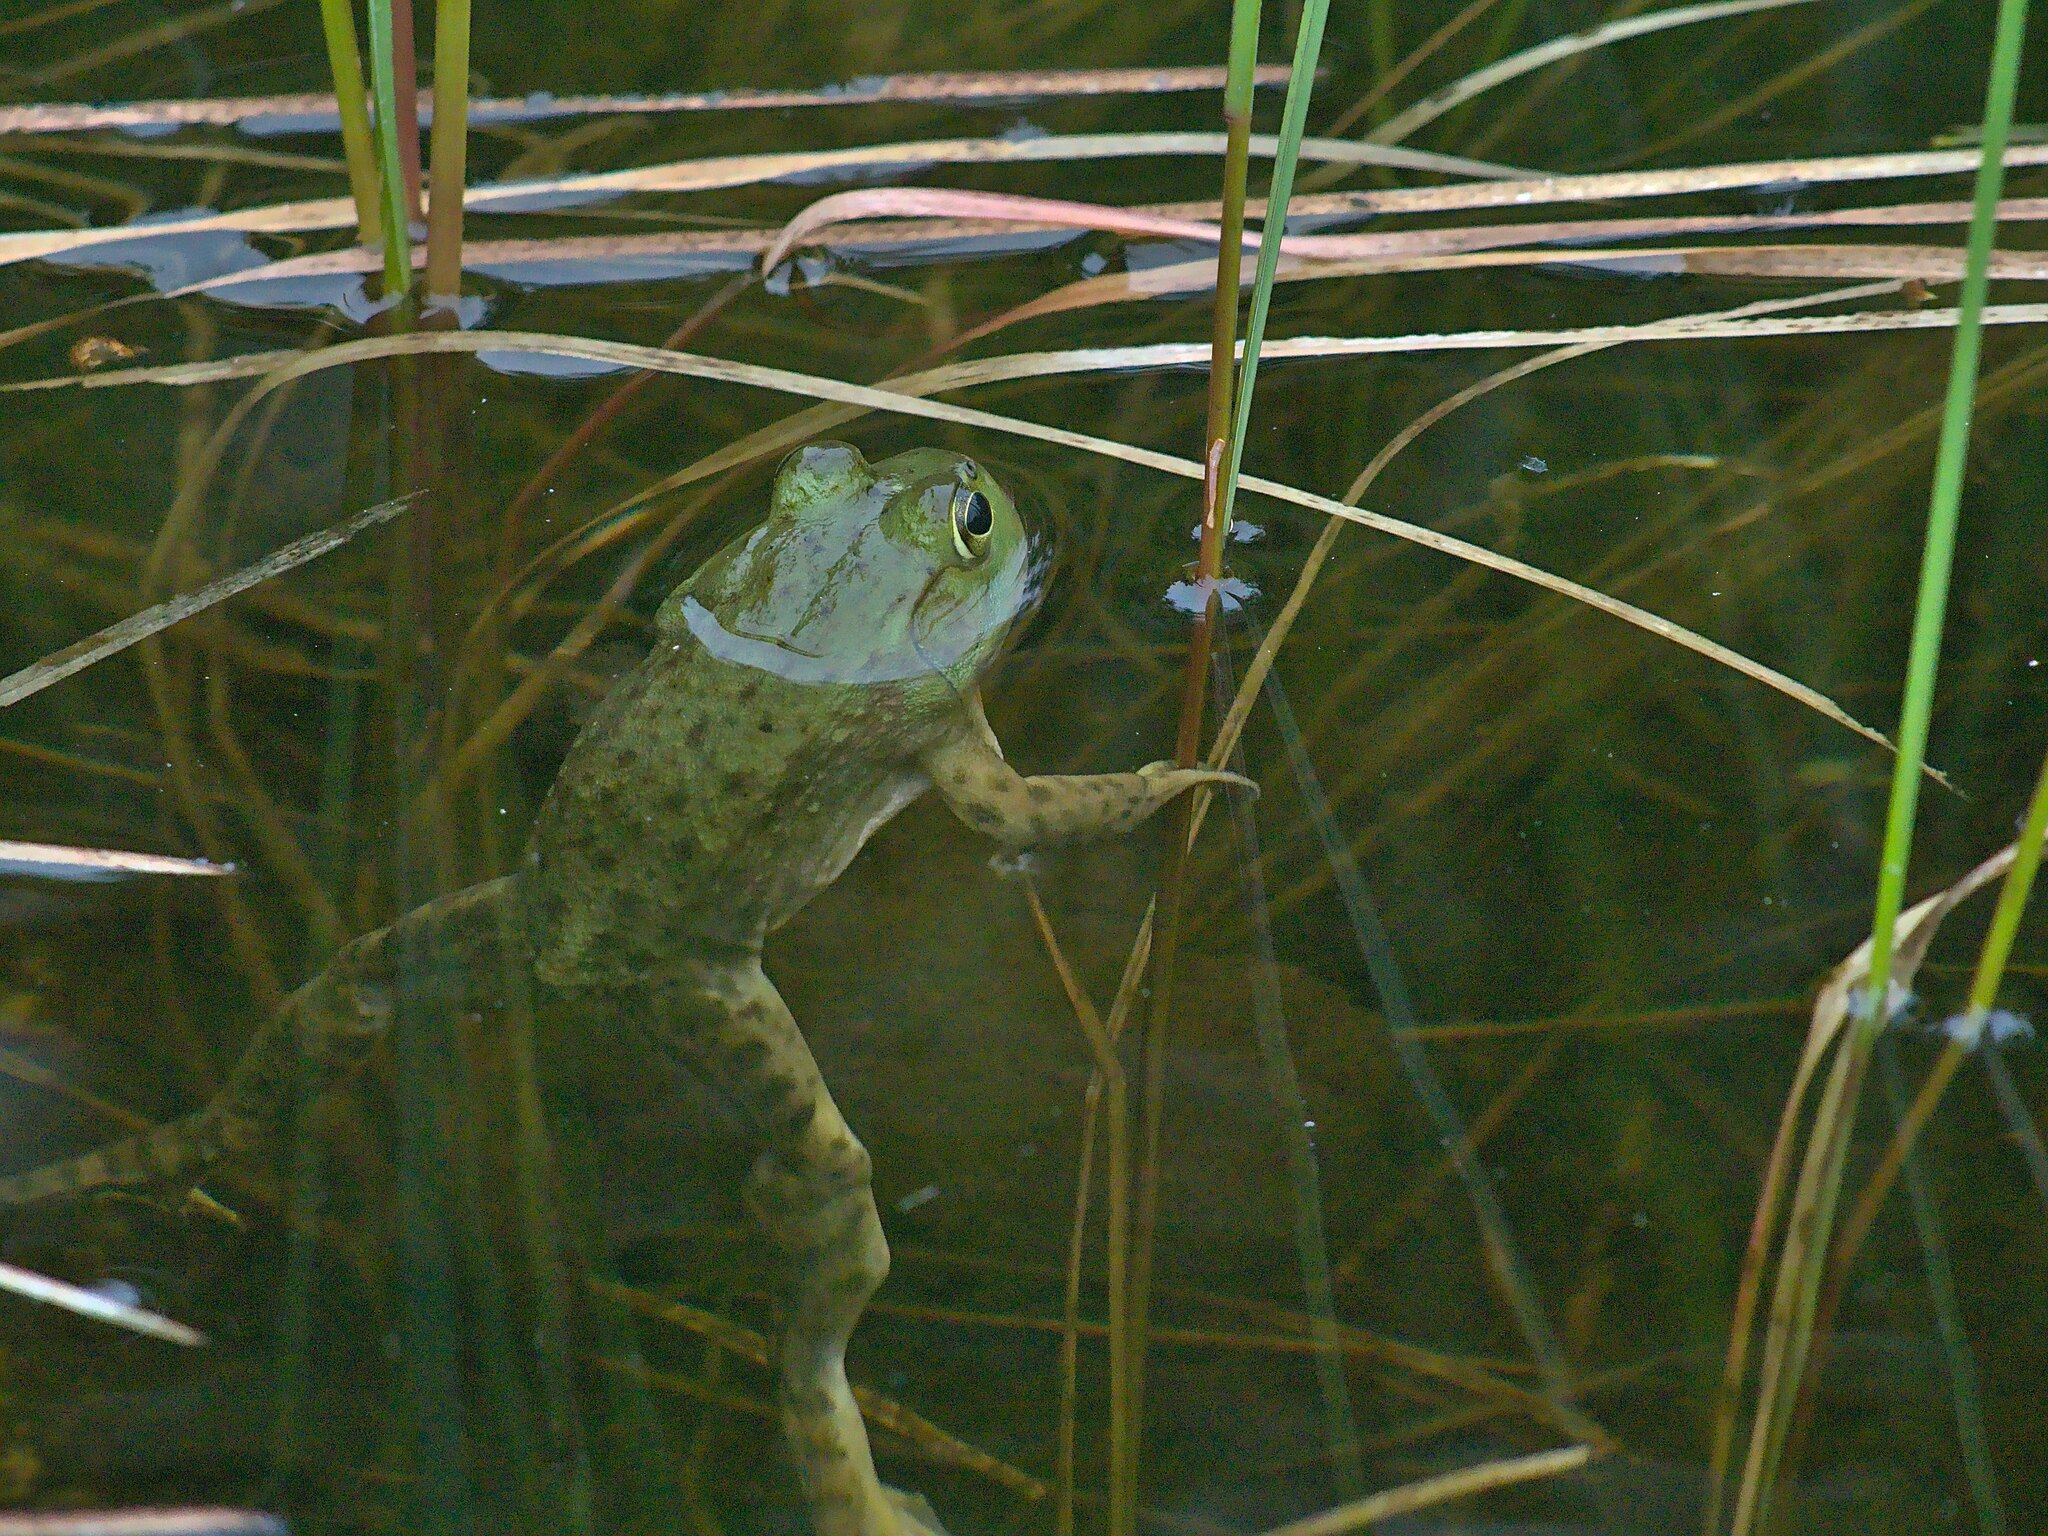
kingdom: Animalia
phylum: Chordata
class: Amphibia
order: Anura
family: Ranidae
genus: Lithobates
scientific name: Lithobates catesbeianus
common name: American bullfrog
